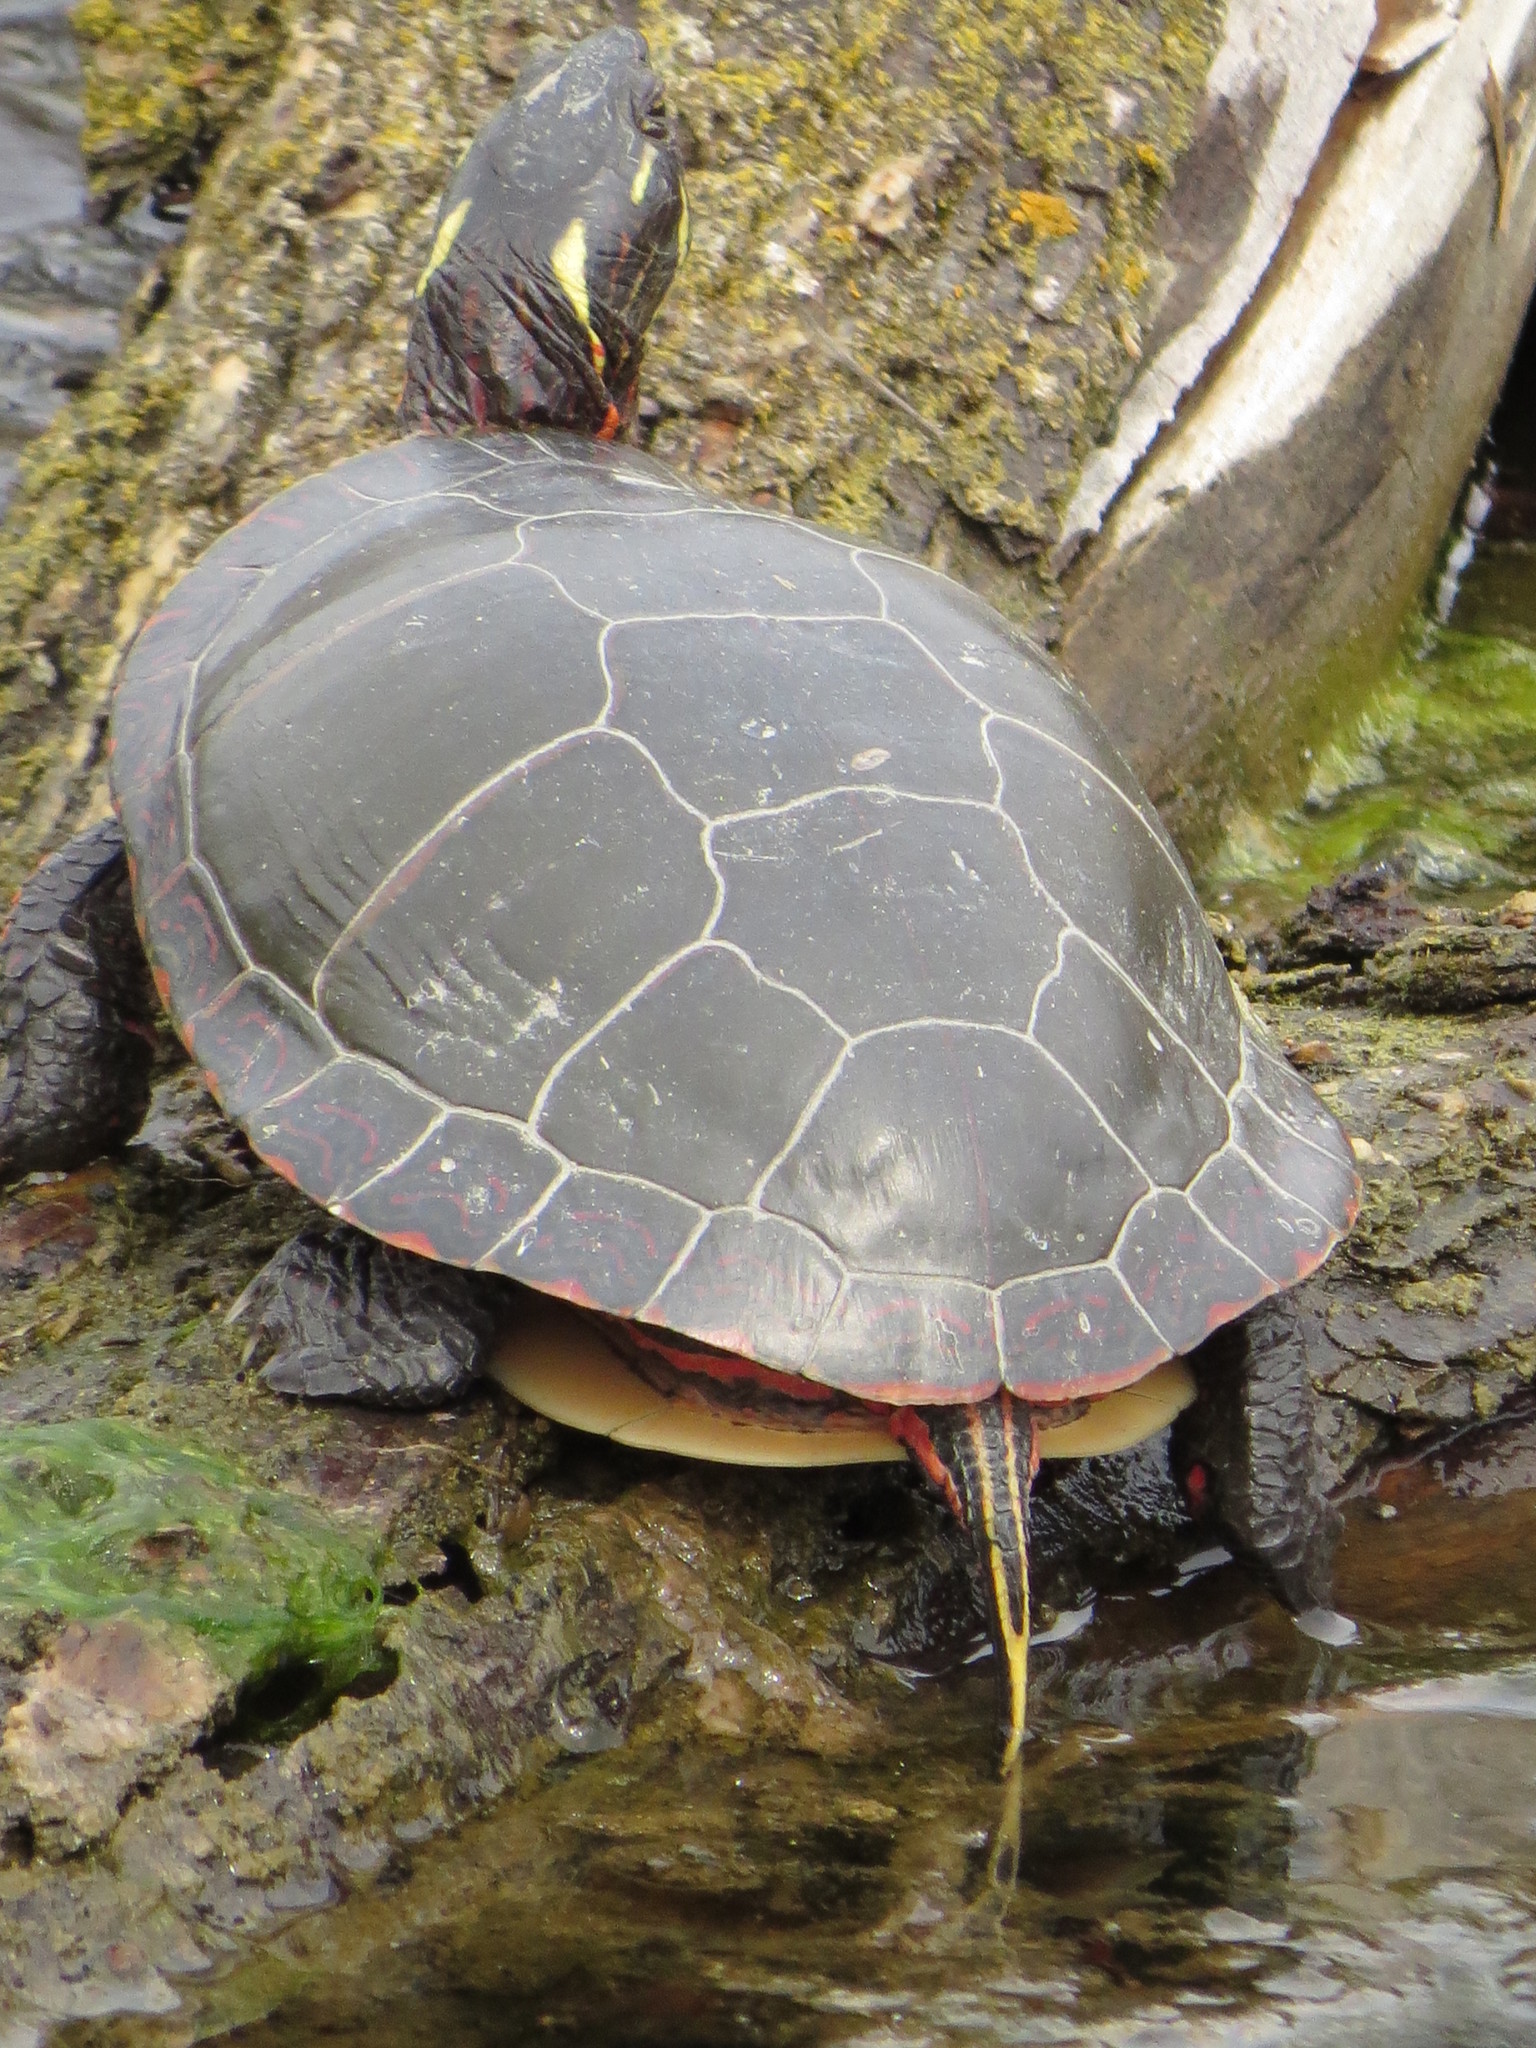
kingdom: Animalia
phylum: Chordata
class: Testudines
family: Emydidae
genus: Chrysemys
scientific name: Chrysemys picta
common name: Painted turtle
